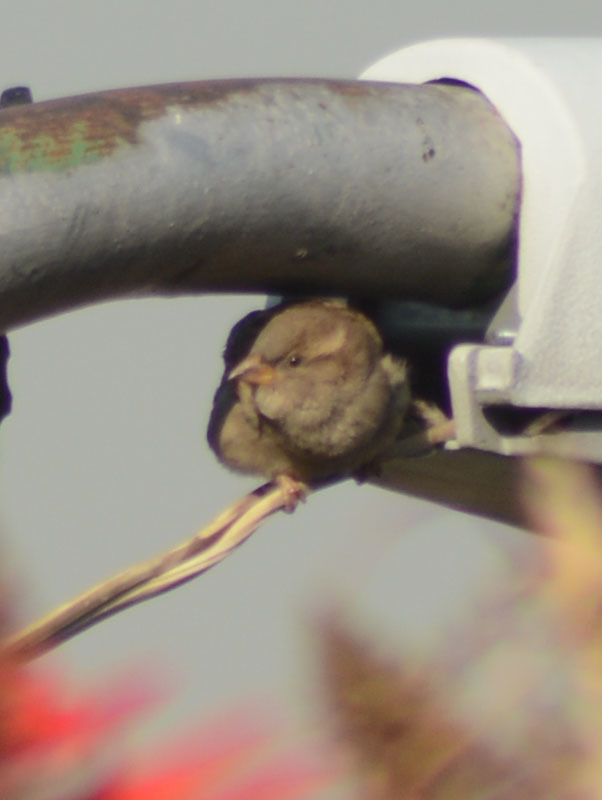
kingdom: Animalia
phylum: Chordata
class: Aves
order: Passeriformes
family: Passeridae
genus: Passer
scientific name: Passer domesticus
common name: House sparrow
